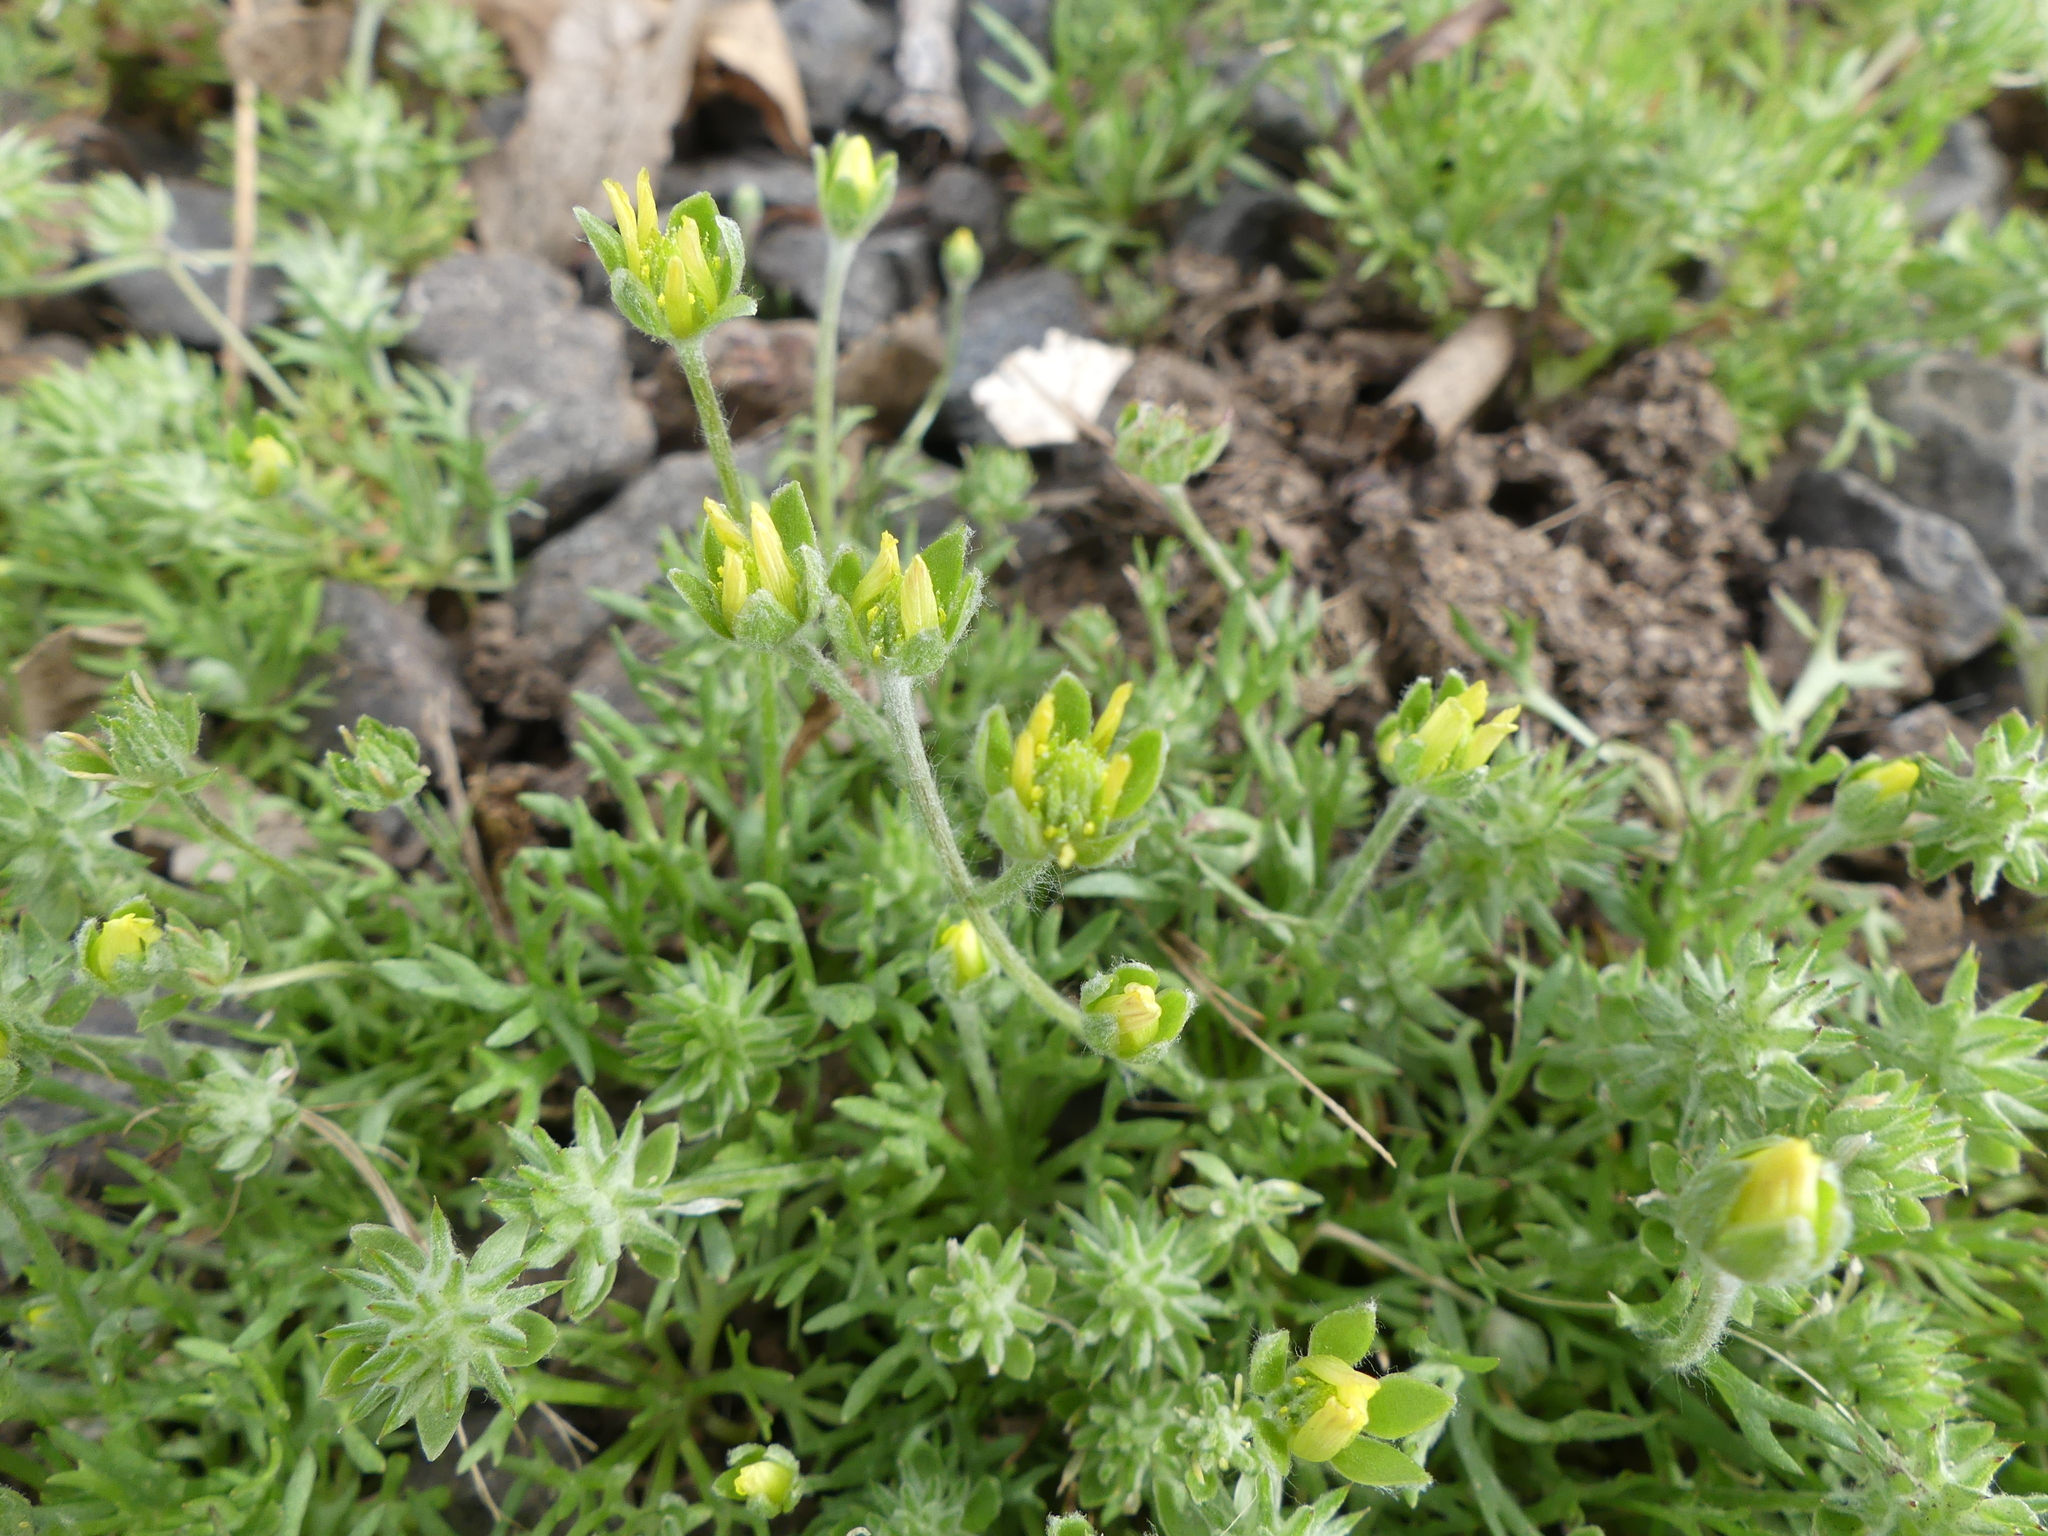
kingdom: Plantae
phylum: Tracheophyta
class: Magnoliopsida
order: Ranunculales
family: Ranunculaceae
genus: Ceratocephala
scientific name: Ceratocephala orthoceras
